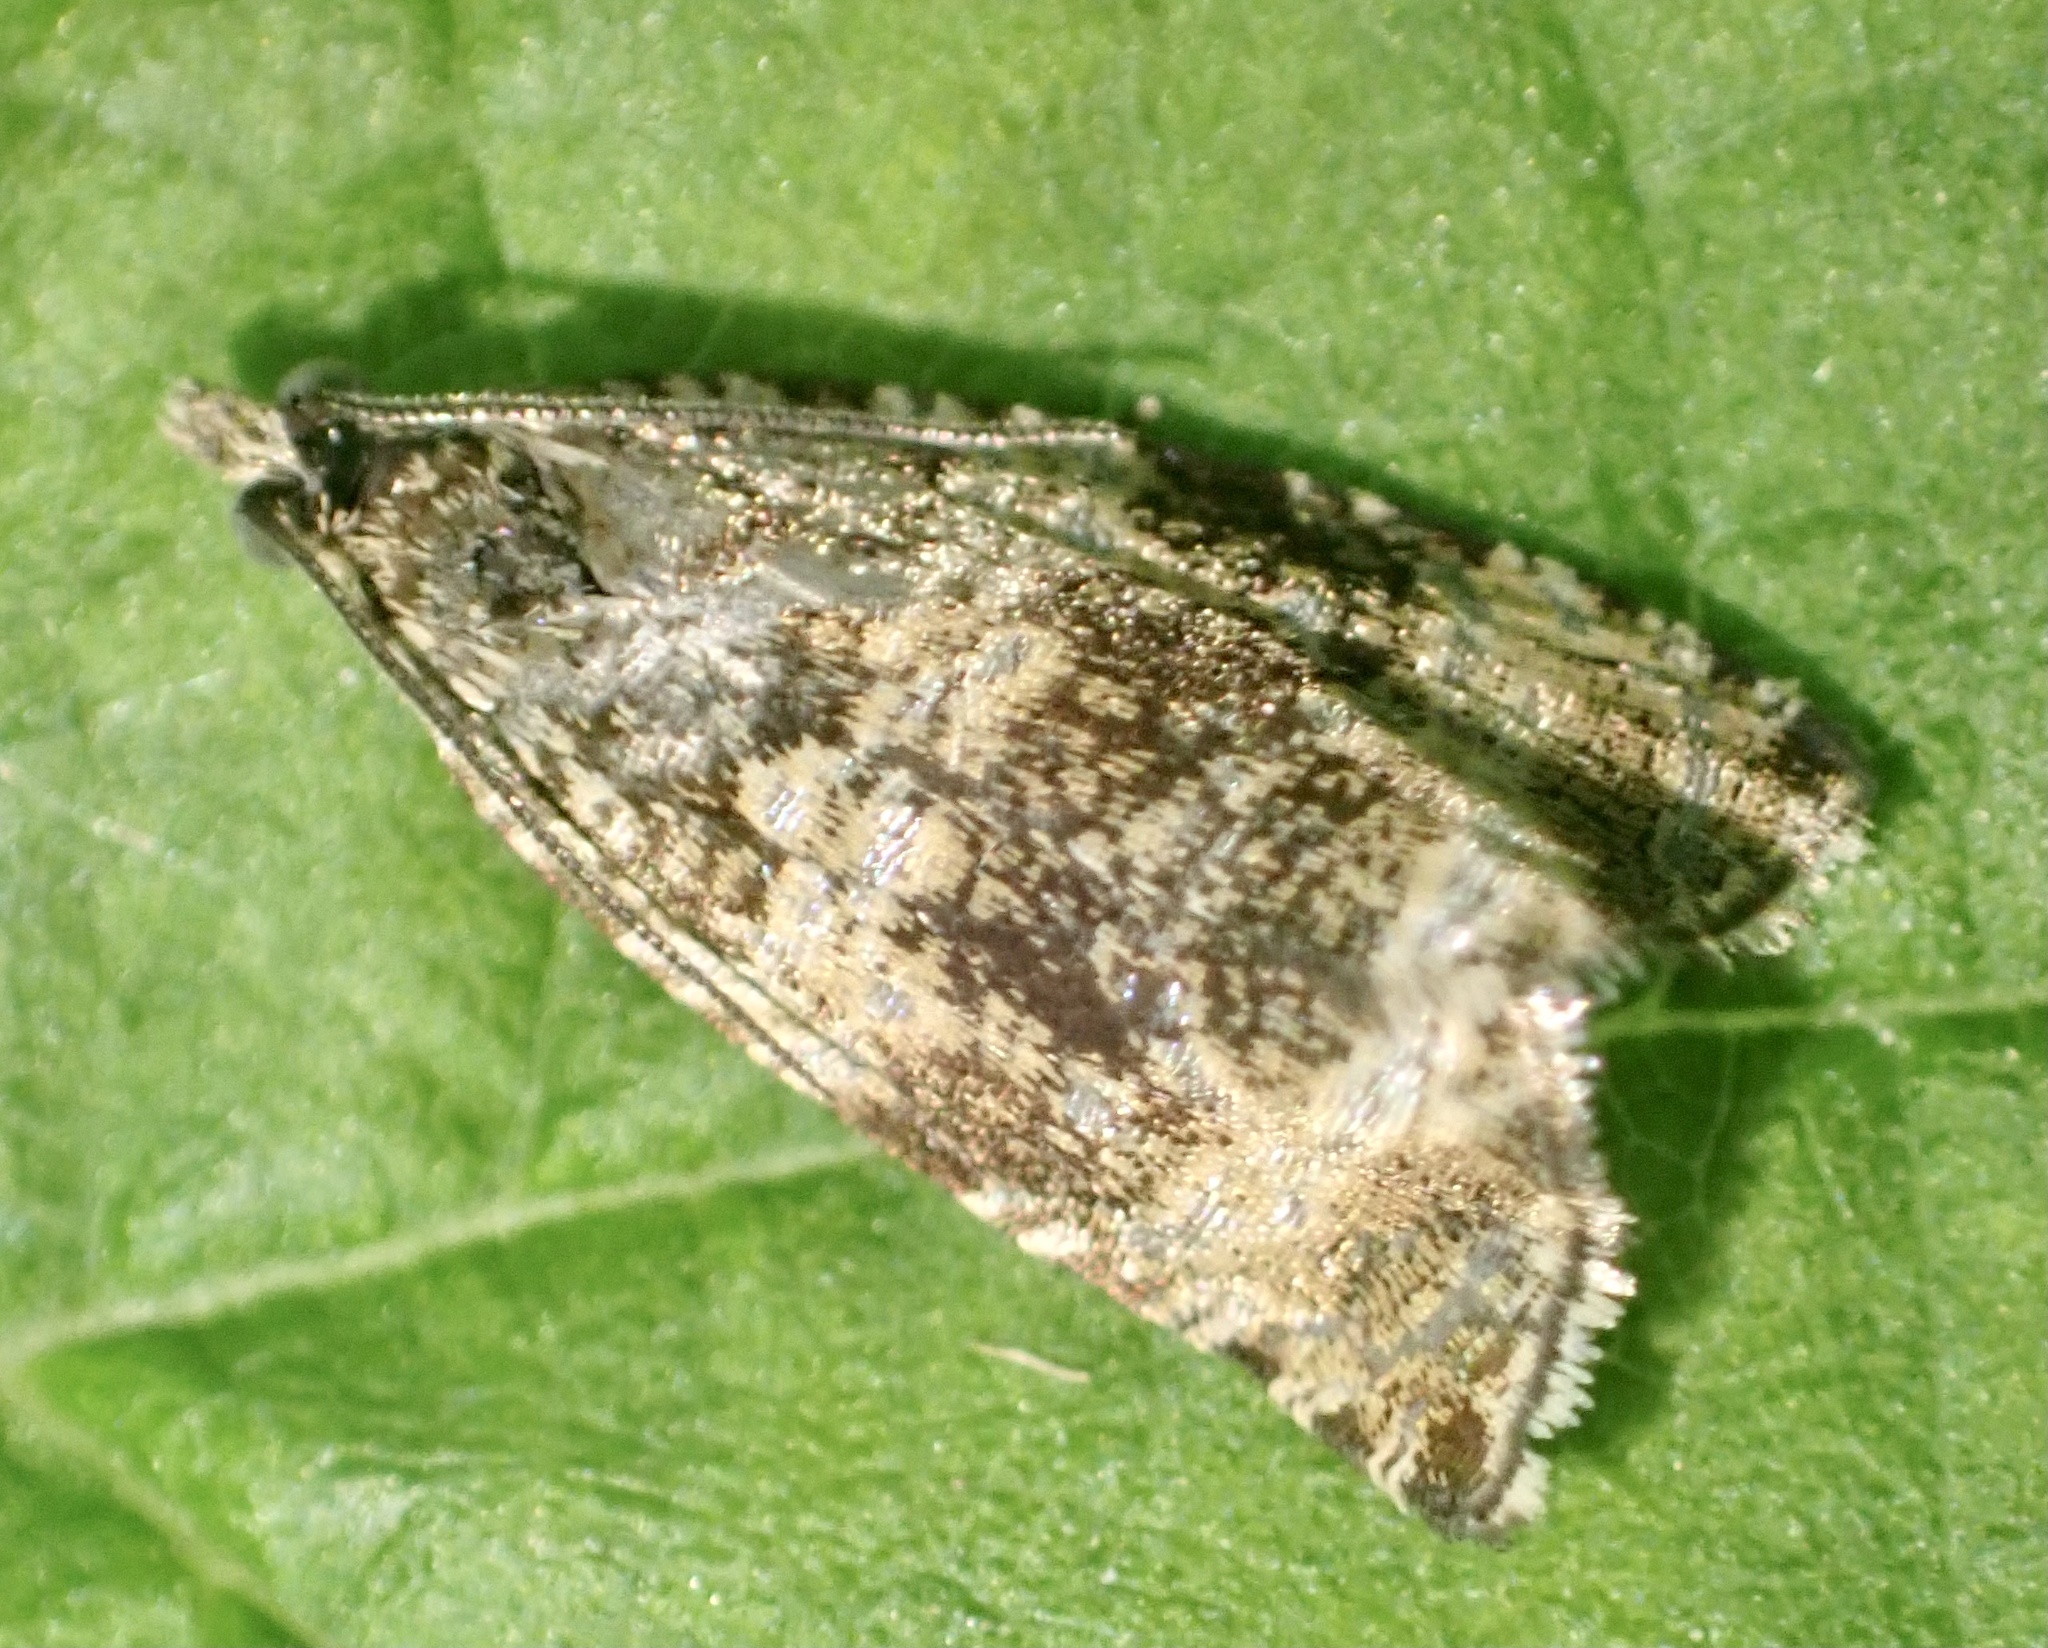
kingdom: Animalia
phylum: Arthropoda
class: Insecta
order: Lepidoptera
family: Tortricidae
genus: Syricoris
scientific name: Syricoris lacunana
